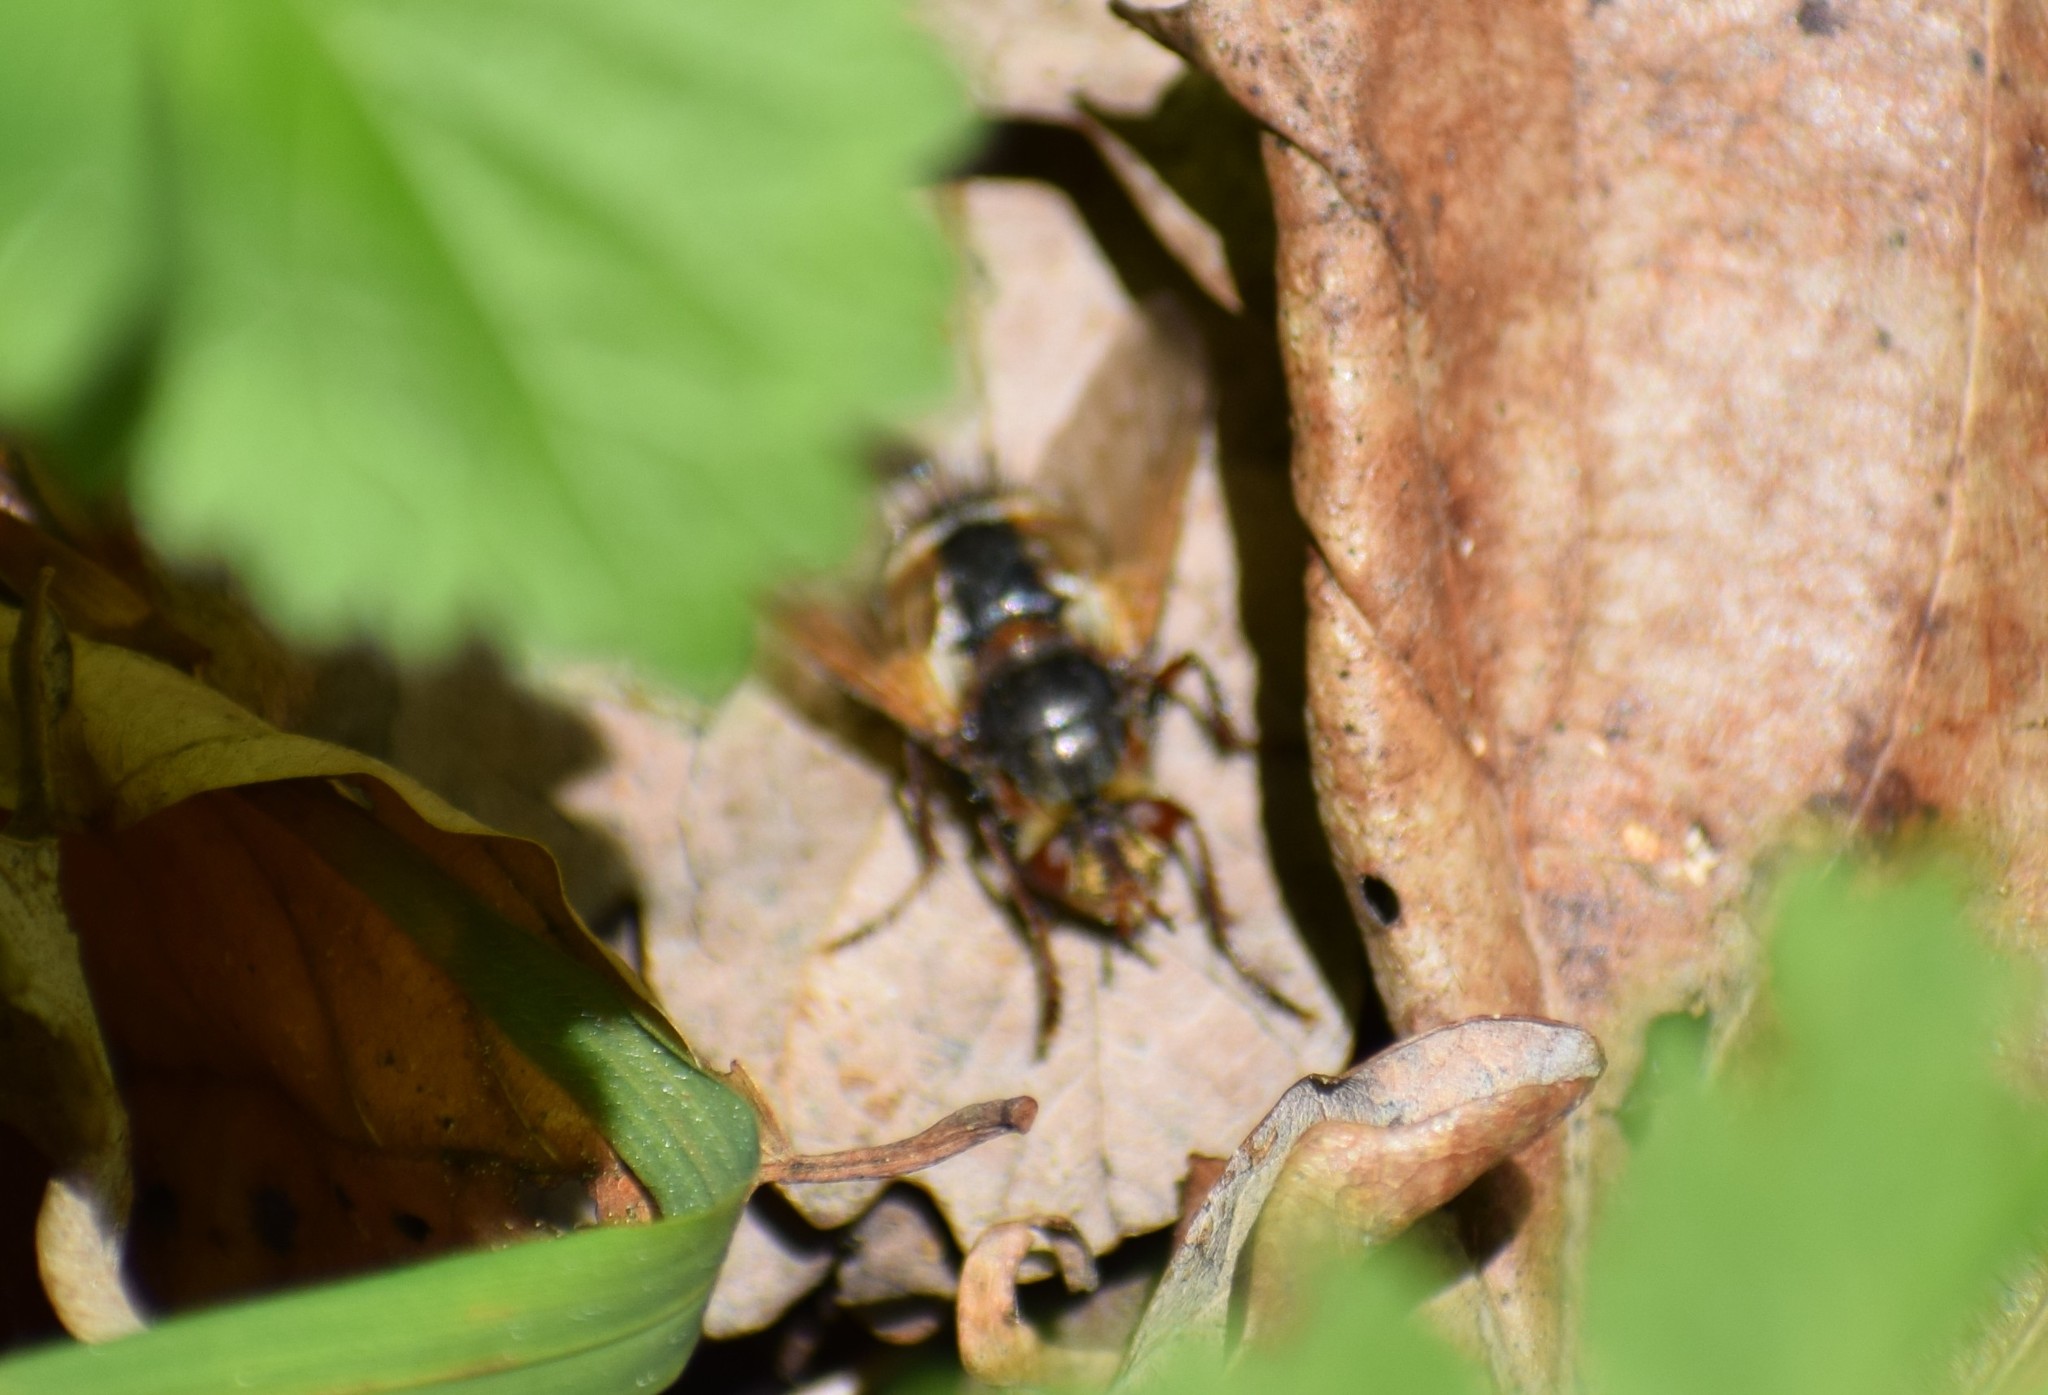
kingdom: Animalia
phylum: Arthropoda
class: Insecta
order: Diptera
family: Tachinidae
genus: Tachina
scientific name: Tachina
